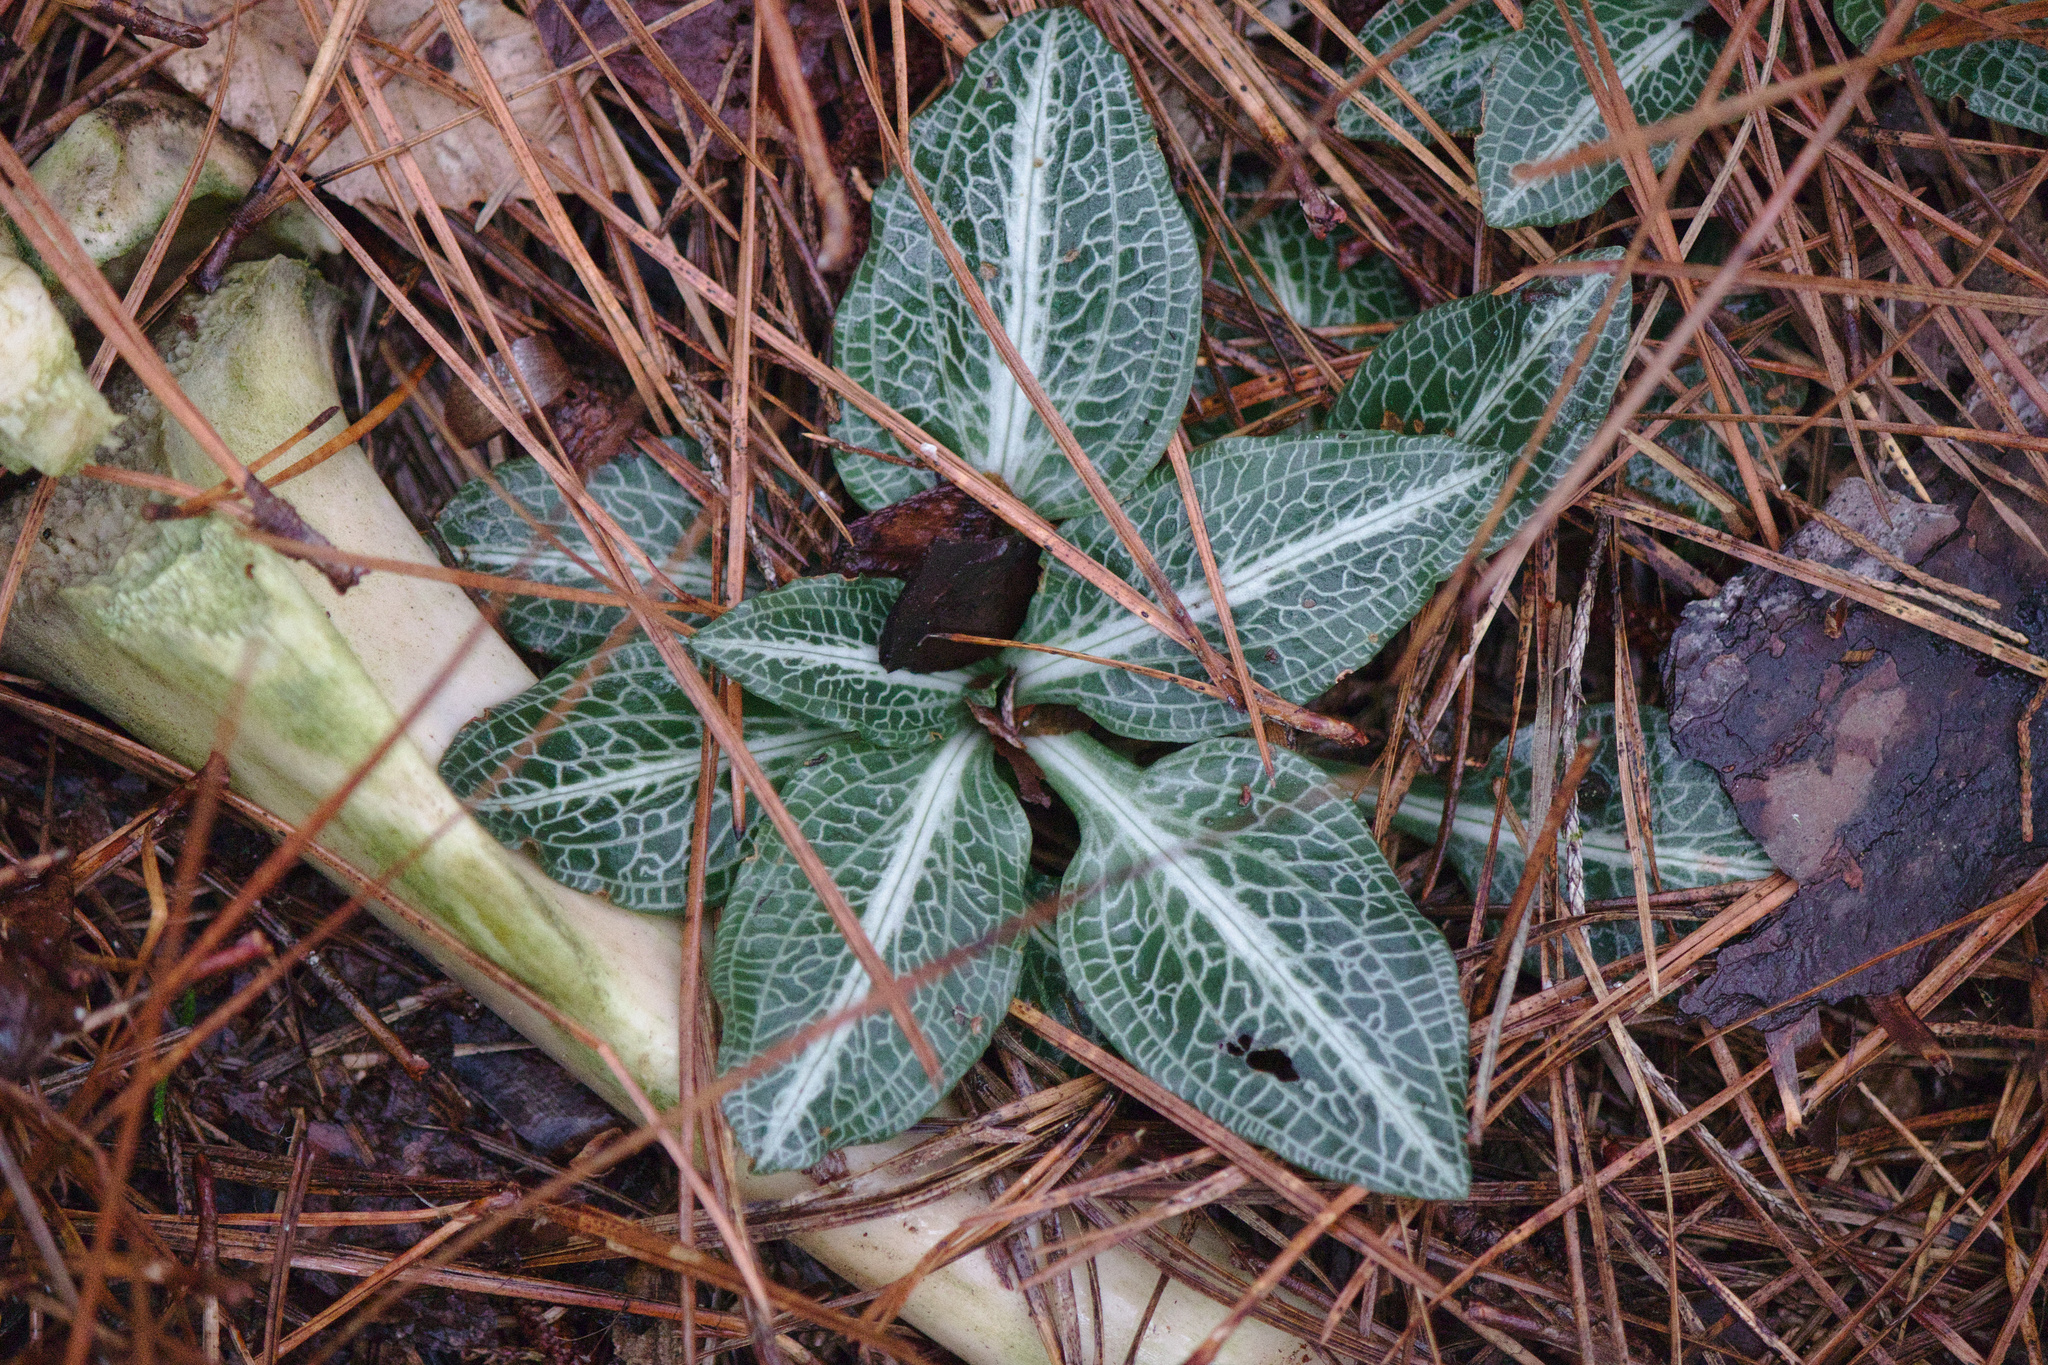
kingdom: Plantae
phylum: Tracheophyta
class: Liliopsida
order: Asparagales
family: Orchidaceae
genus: Goodyera
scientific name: Goodyera pubescens
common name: Downy rattlesnake-plantain
